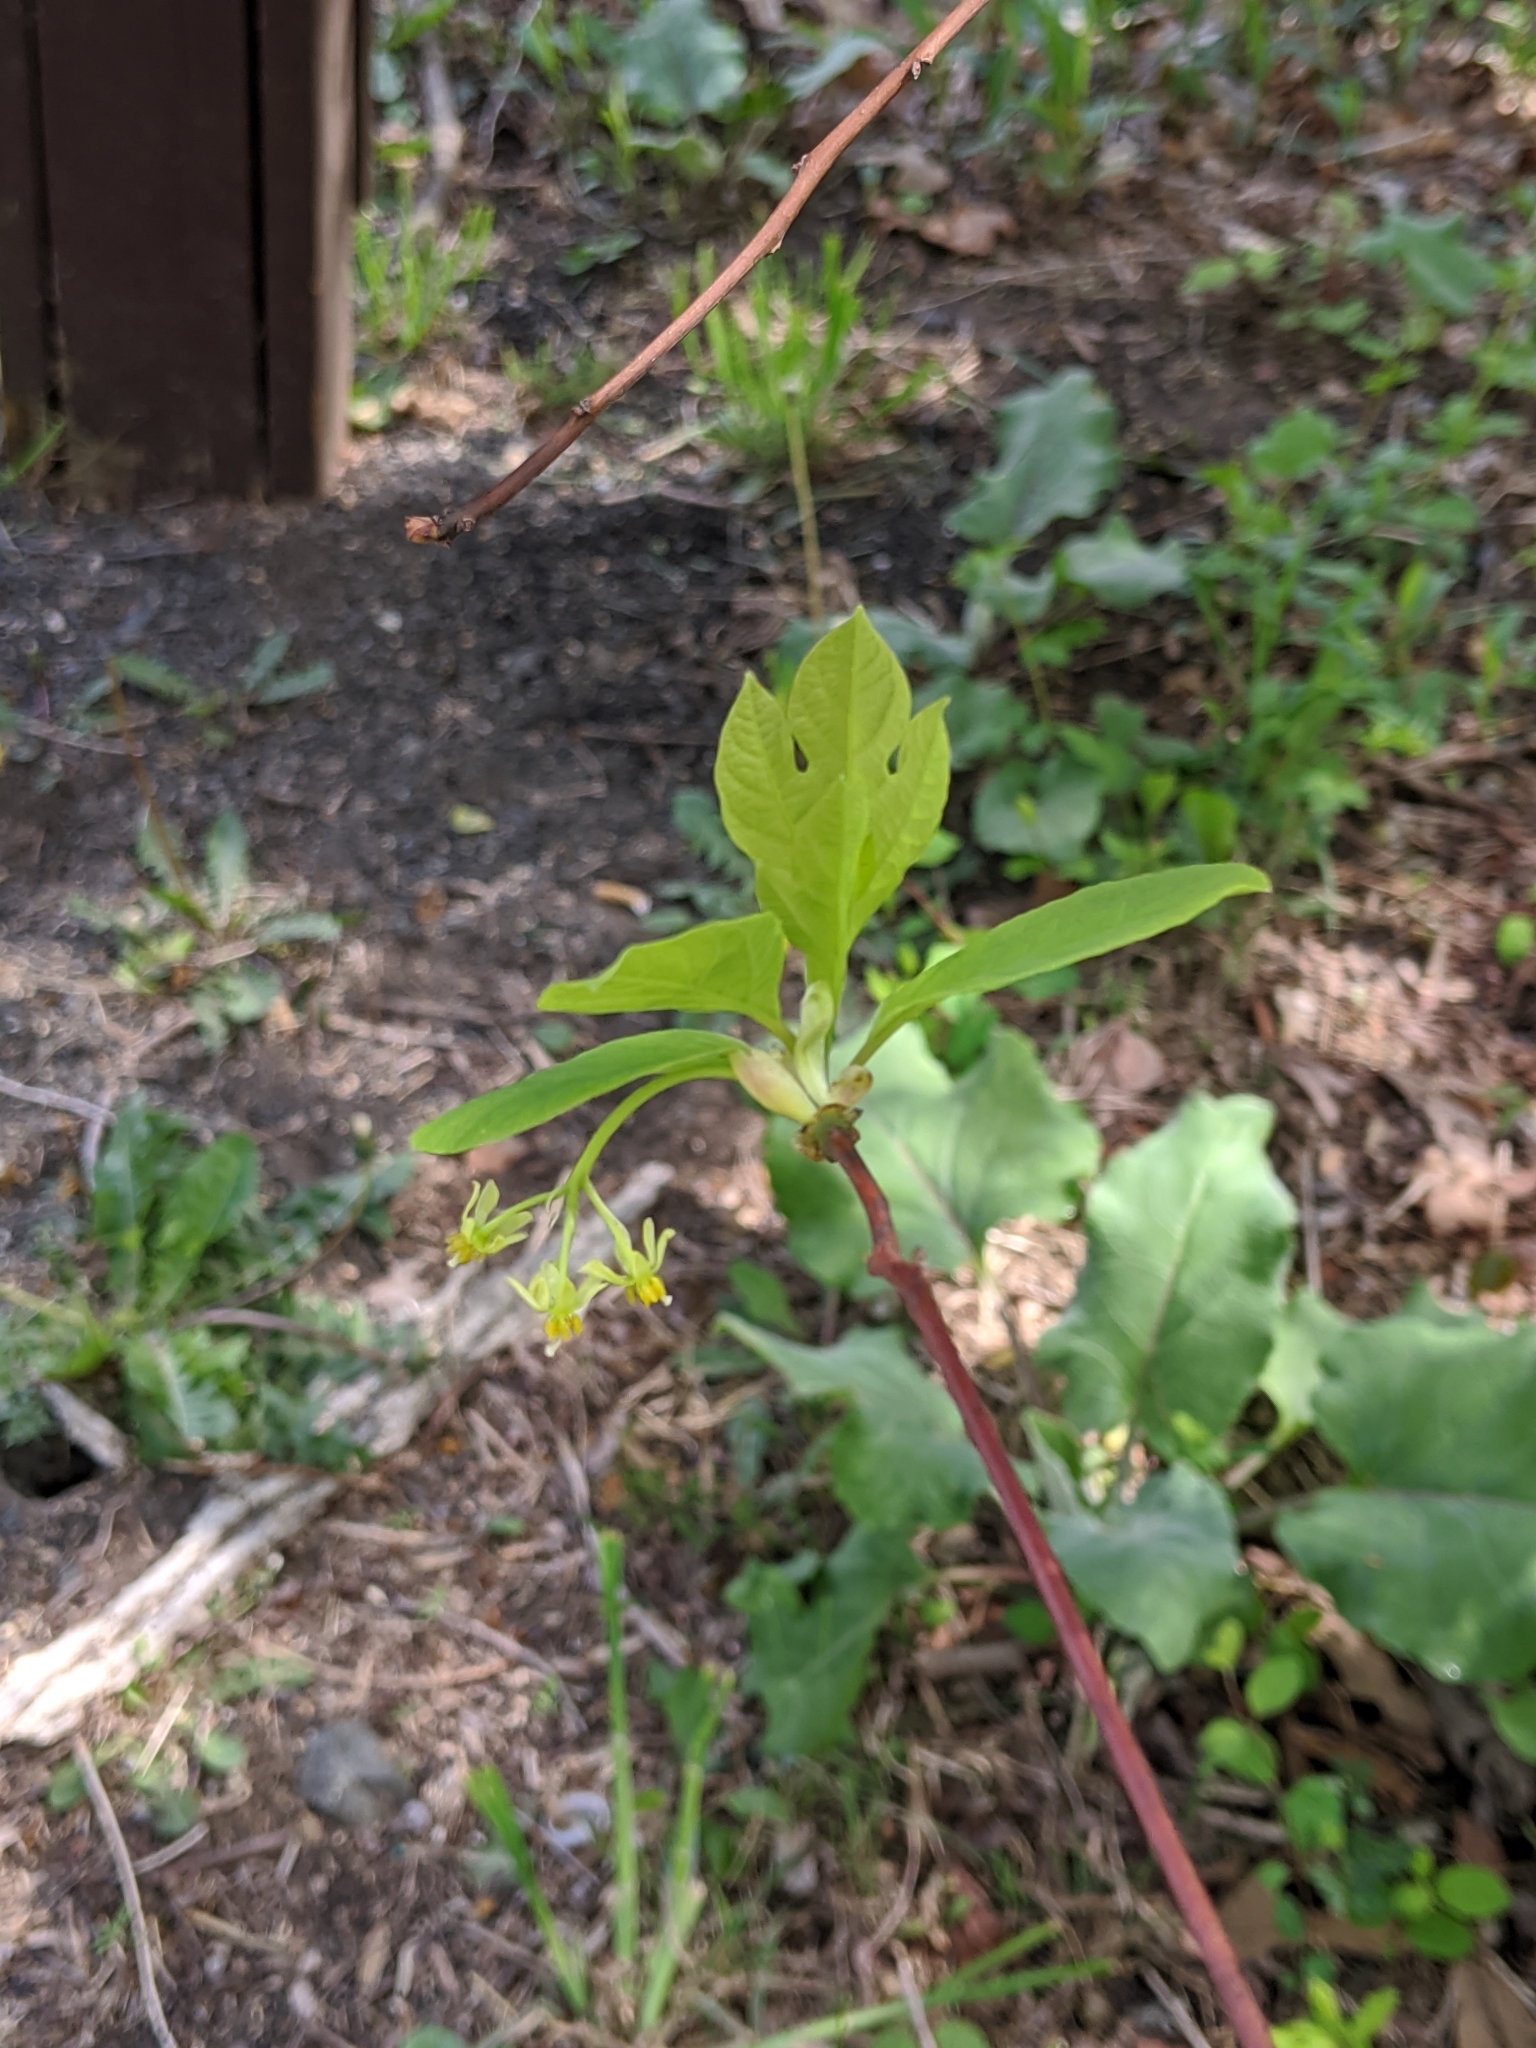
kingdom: Plantae
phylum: Tracheophyta
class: Magnoliopsida
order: Laurales
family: Lauraceae
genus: Sassafras
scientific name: Sassafras albidum
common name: Sassafras
